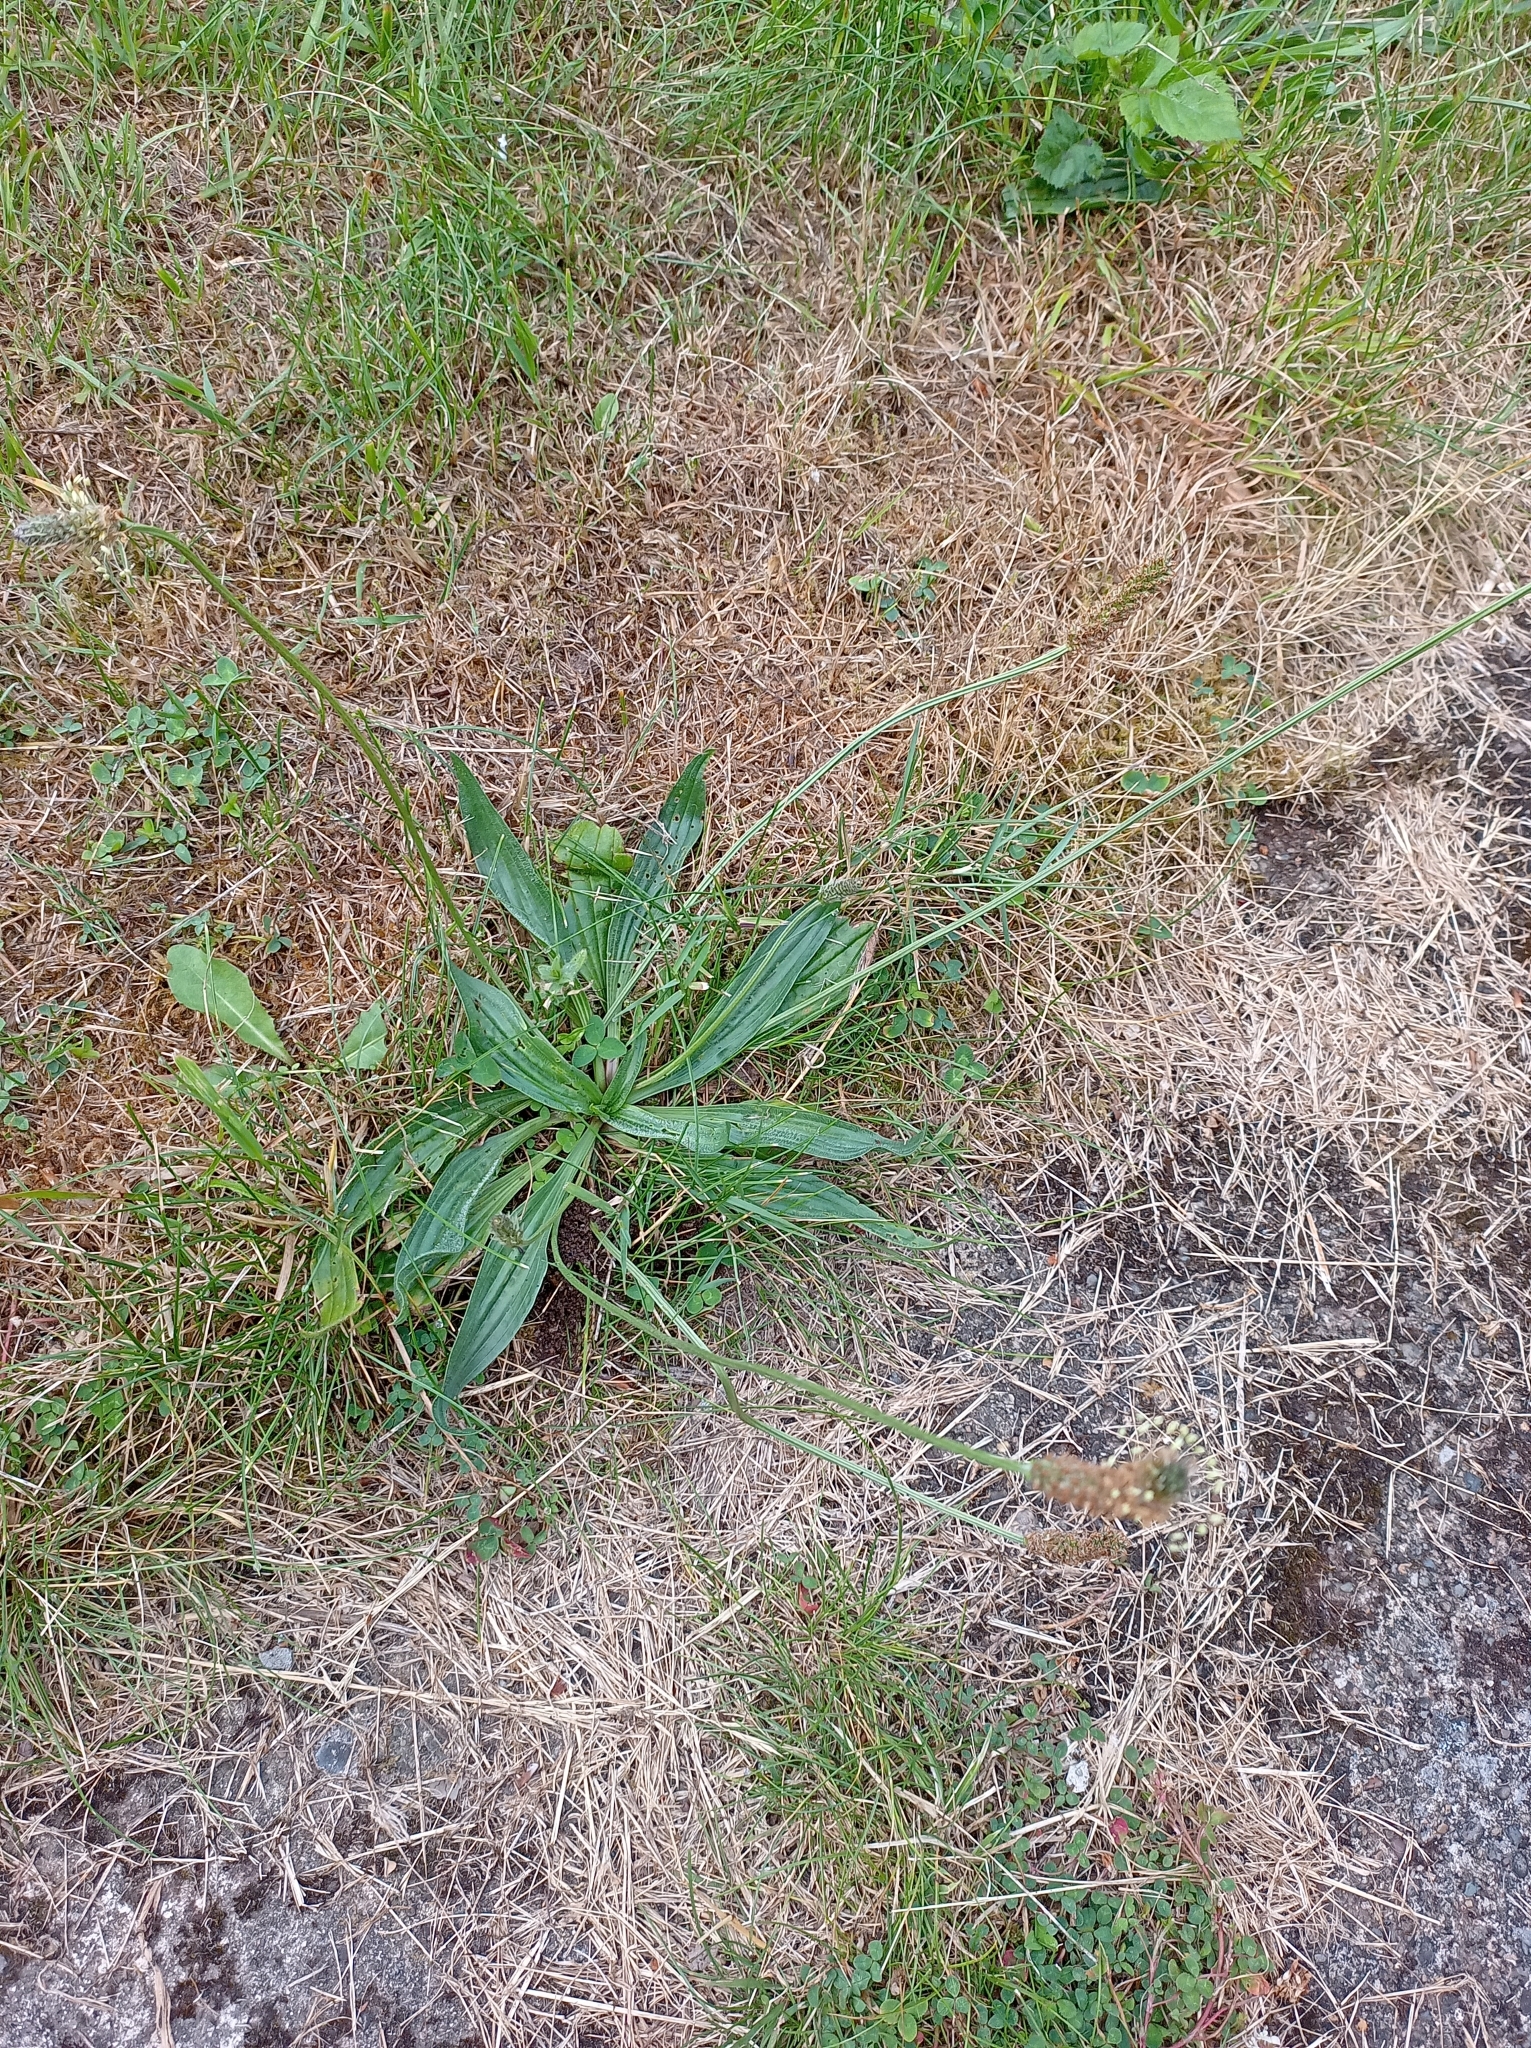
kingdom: Plantae
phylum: Tracheophyta
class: Magnoliopsida
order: Lamiales
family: Plantaginaceae
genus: Plantago
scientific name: Plantago lanceolata
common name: Ribwort plantain
